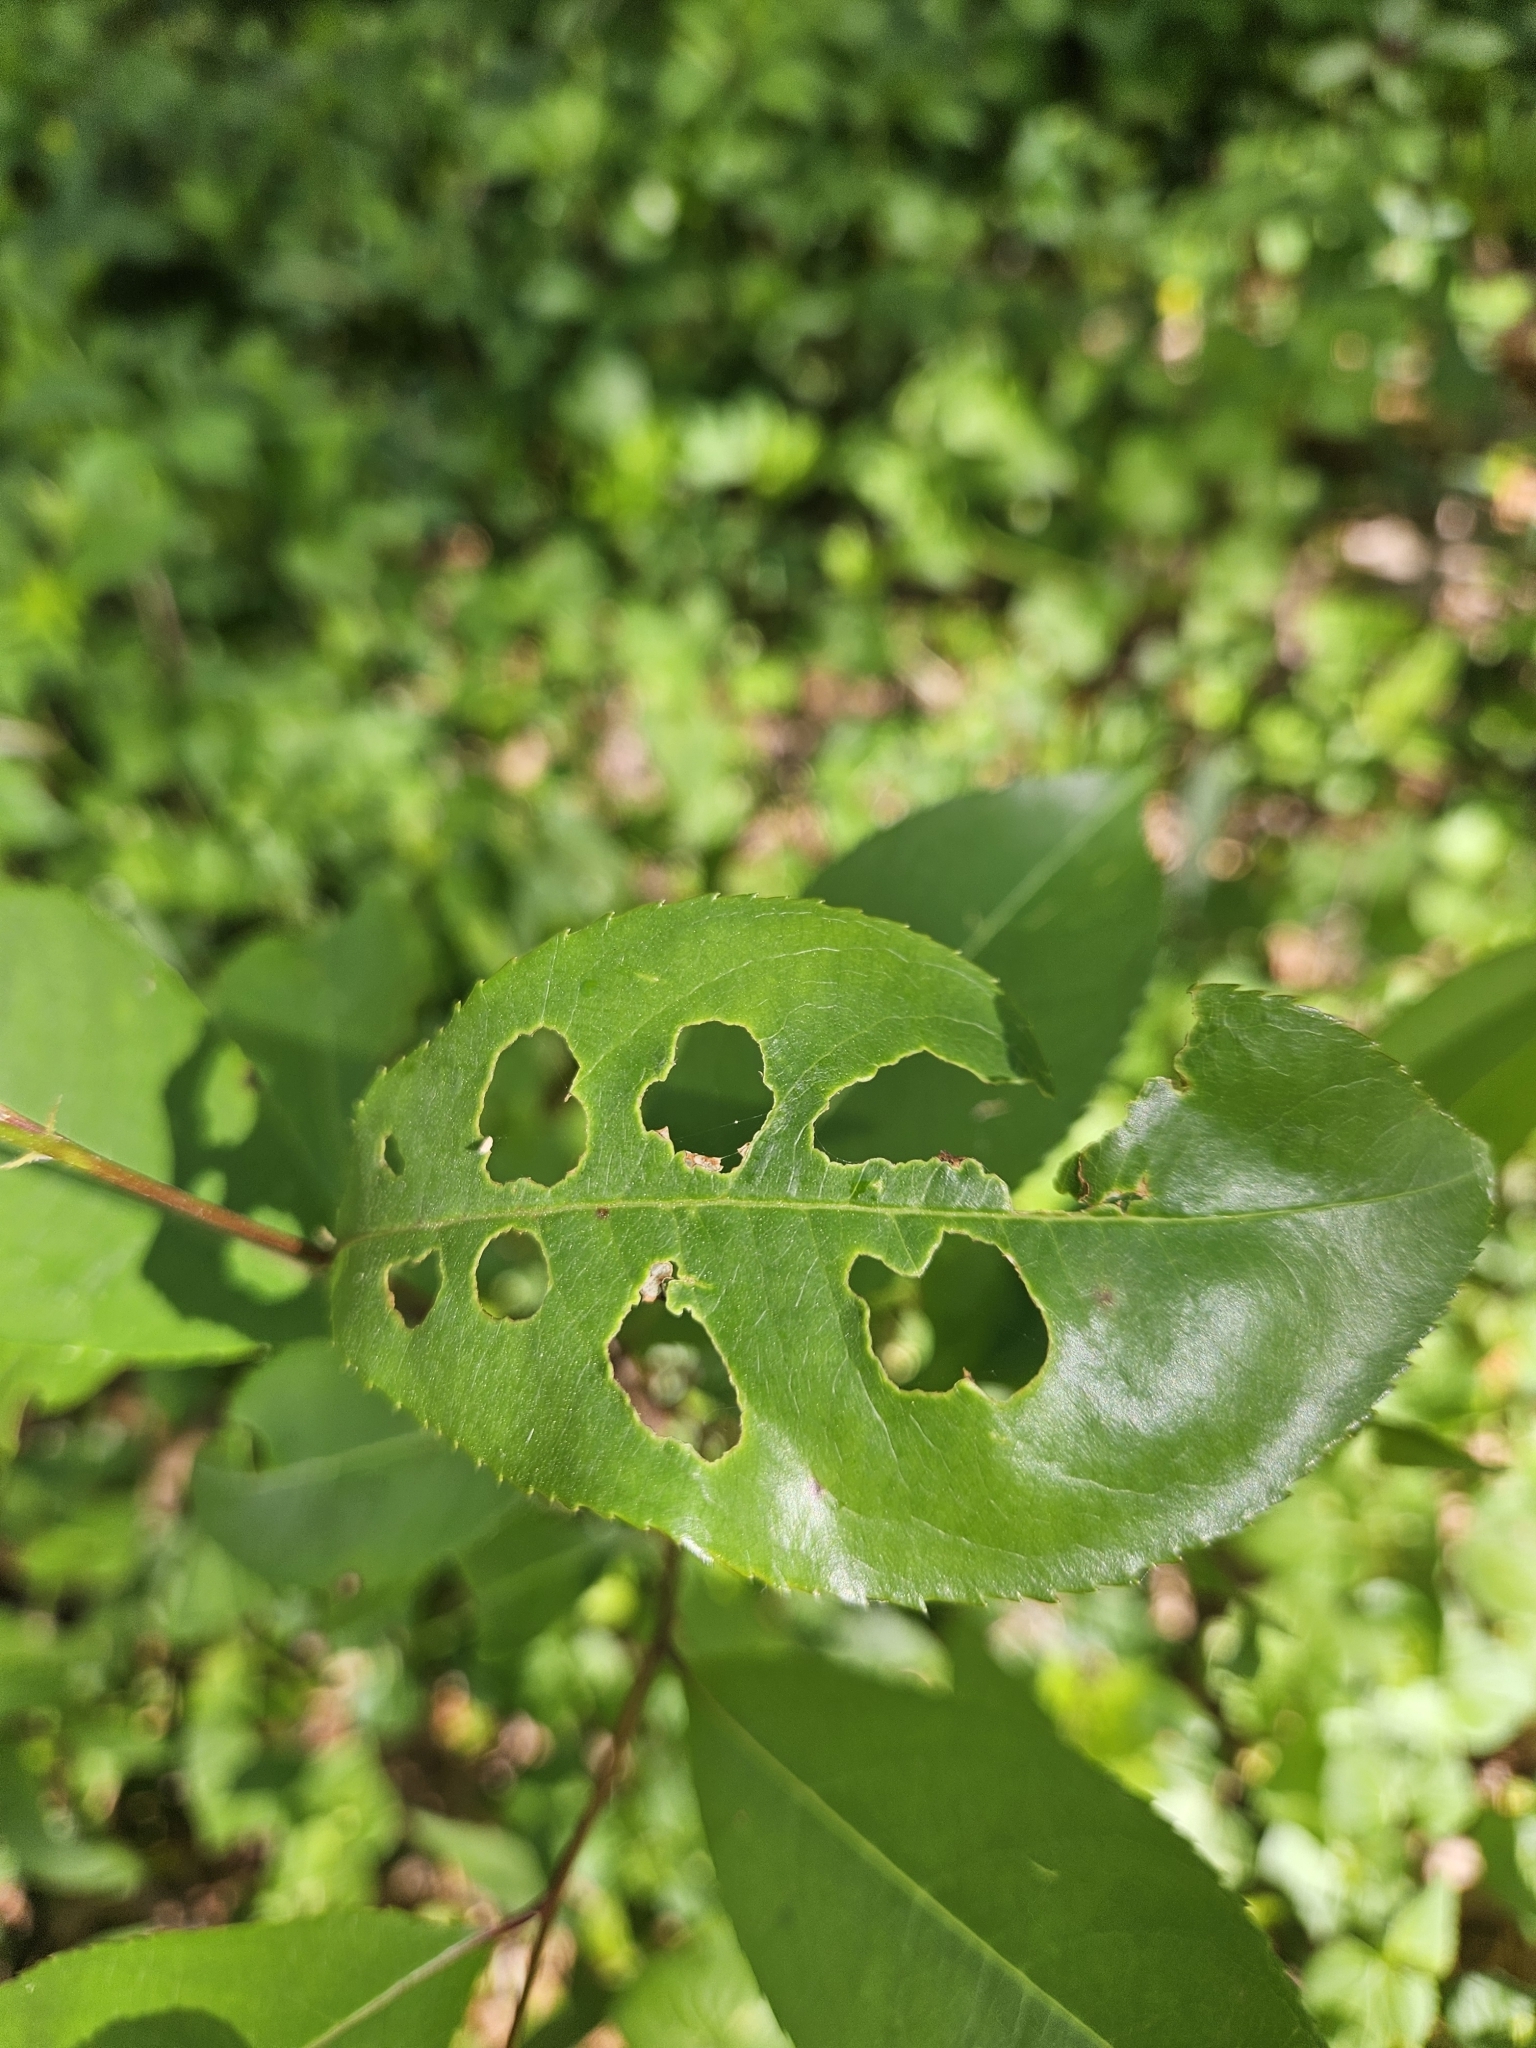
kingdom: Fungi
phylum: Ascomycota
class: Dothideomycetes
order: Mycosphaerellales
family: Mycosphaerellaceae
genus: Stigmina
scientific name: Stigmina carpophila
